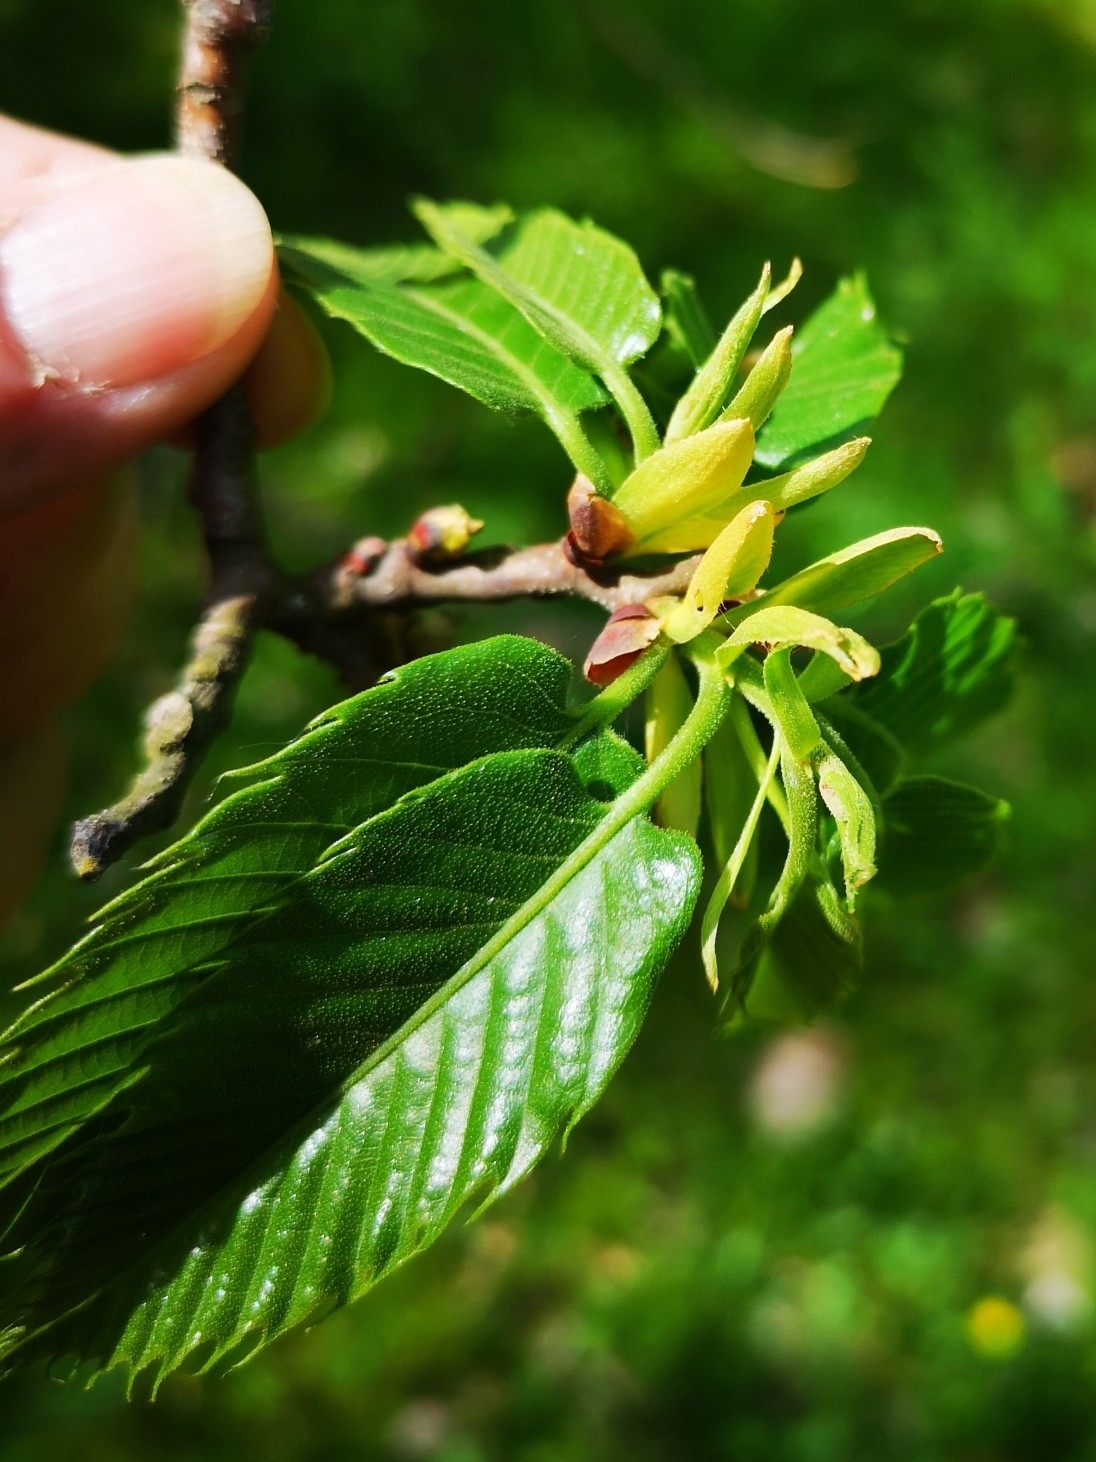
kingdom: Plantae
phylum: Tracheophyta
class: Magnoliopsida
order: Fagales
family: Fagaceae
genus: Castanea
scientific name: Castanea sativa
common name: Sweet chestnut
